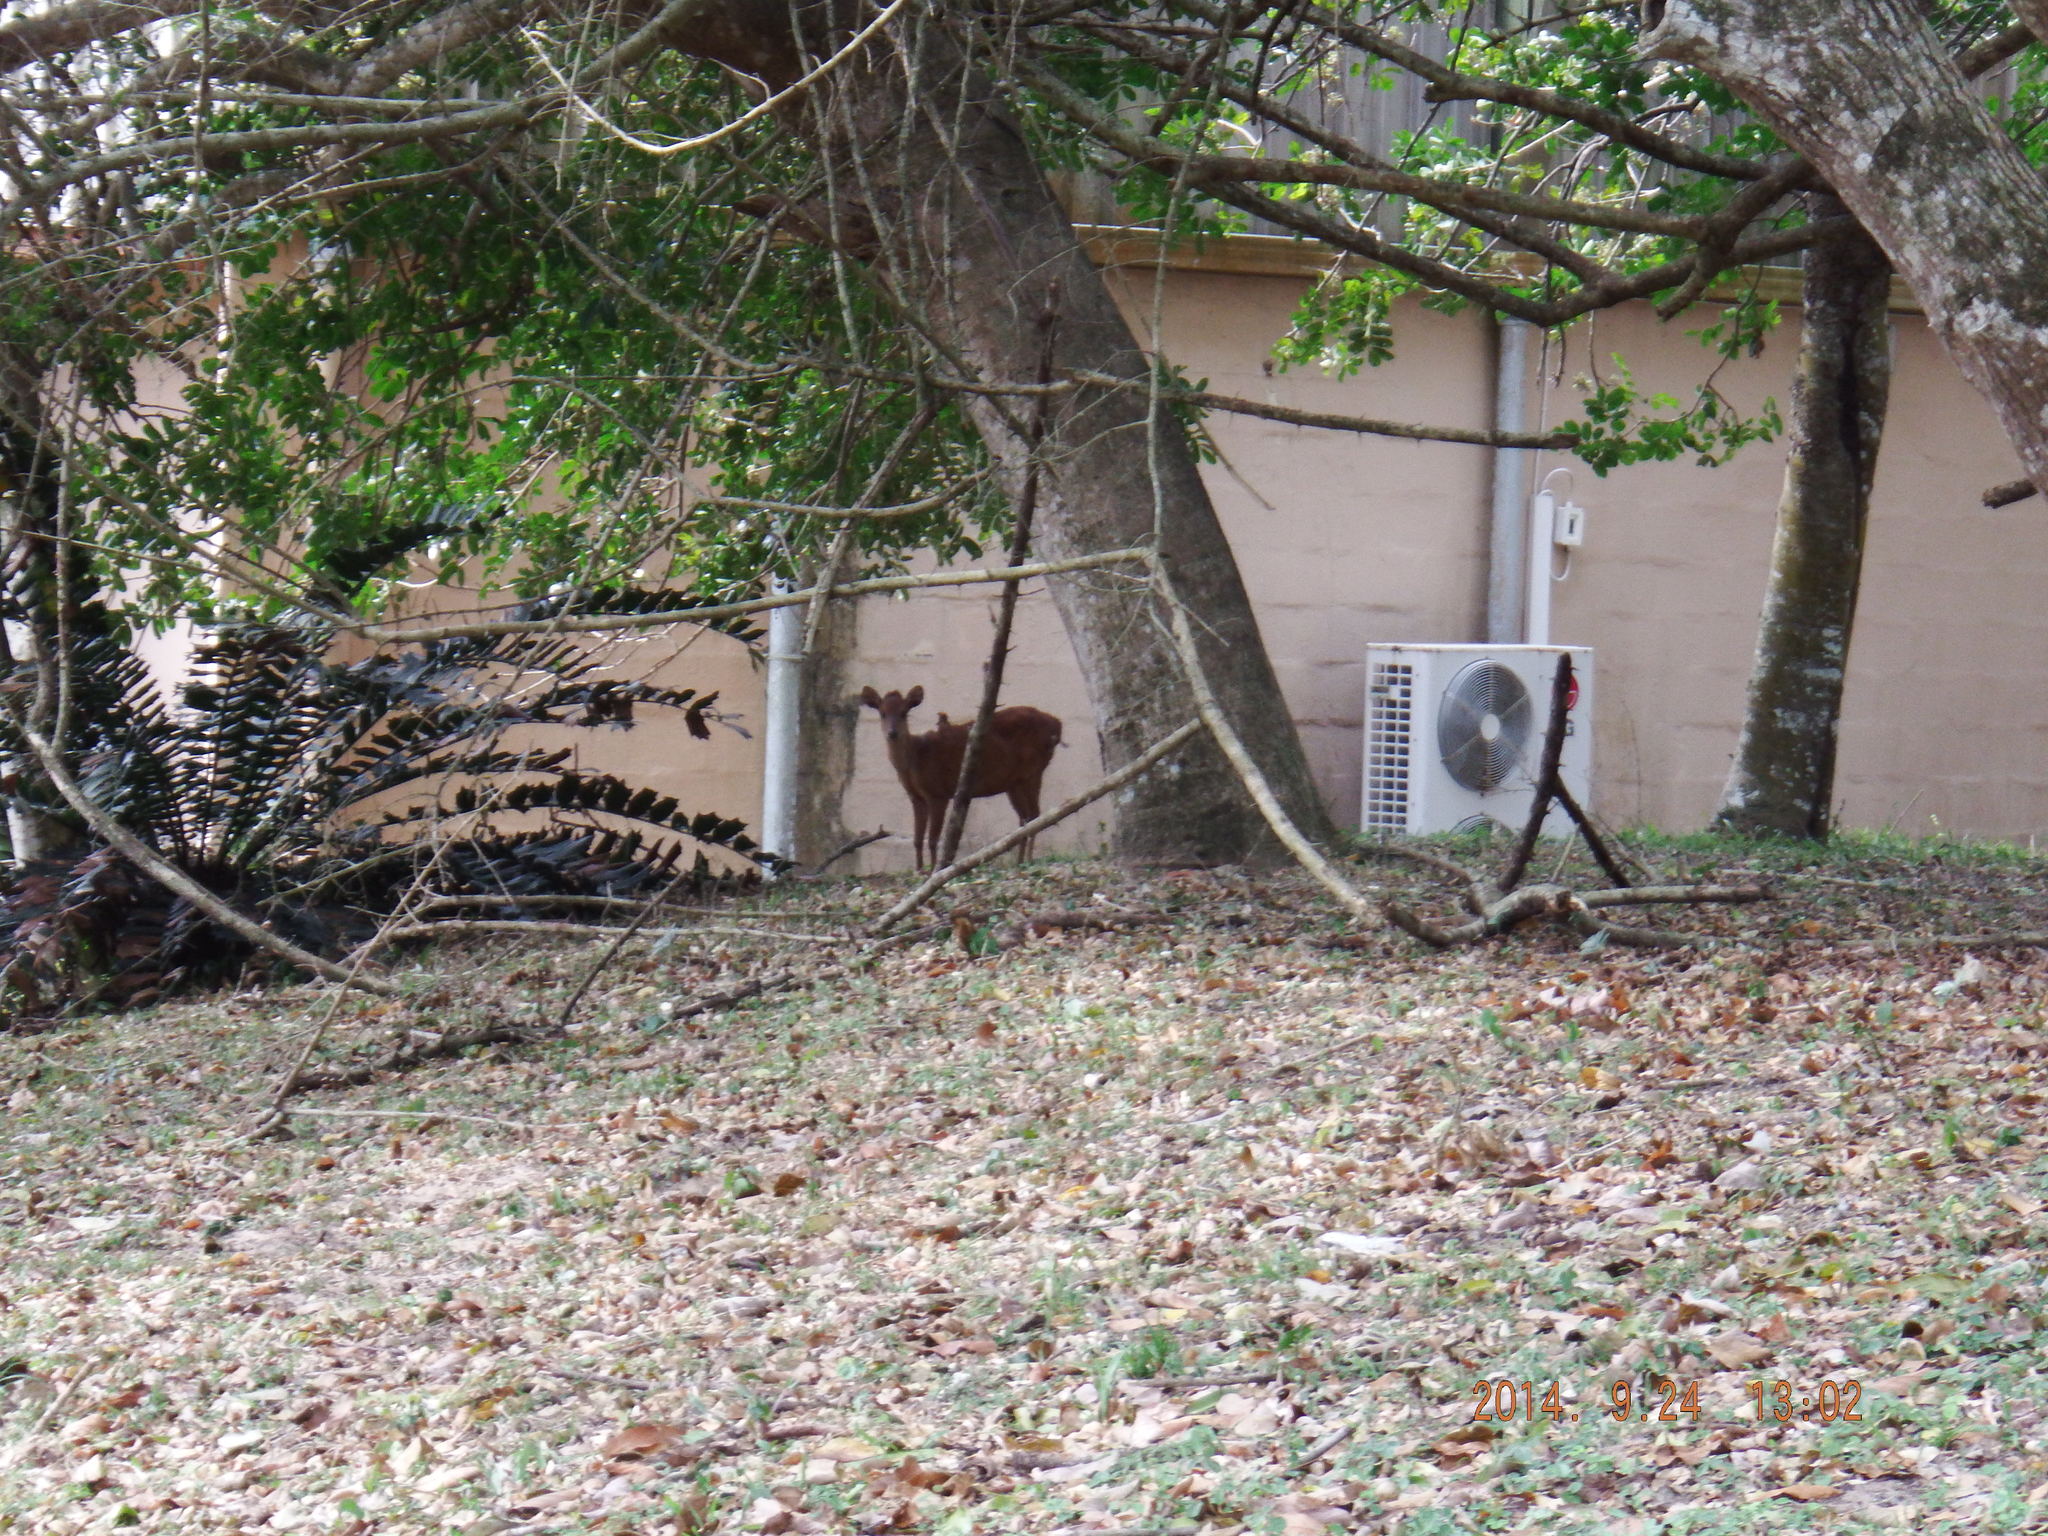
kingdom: Animalia
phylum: Chordata
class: Mammalia
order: Artiodactyla
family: Bovidae
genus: Cephalophus
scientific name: Cephalophus natalensis
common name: Red duiker
